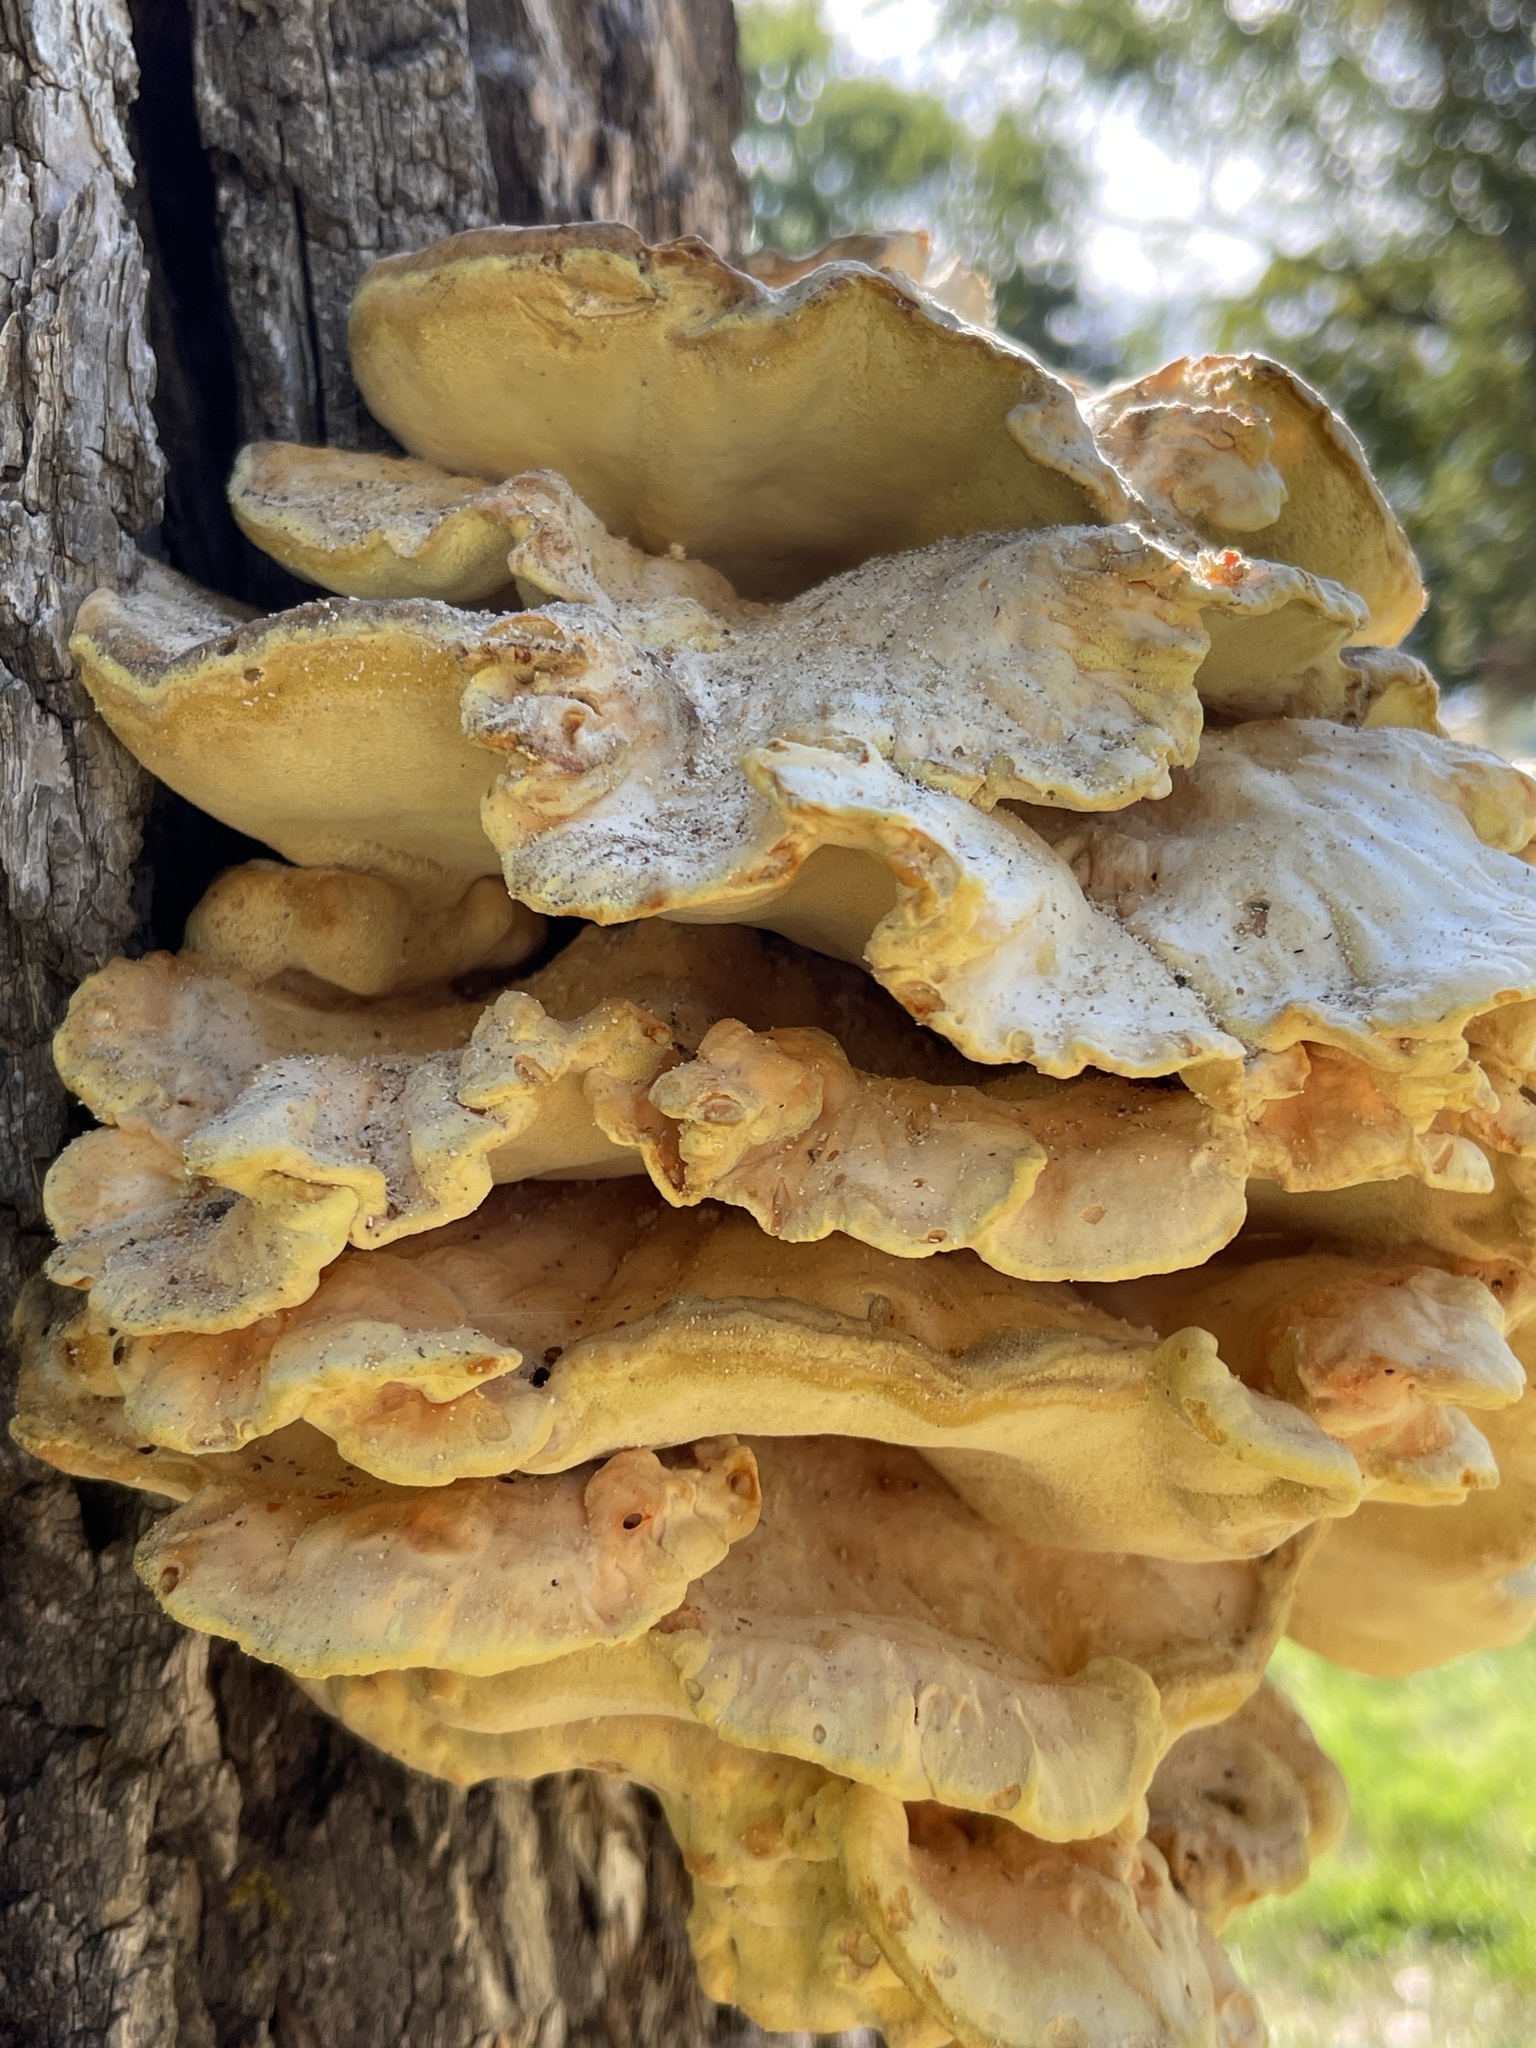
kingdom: Fungi
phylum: Basidiomycota
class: Agaricomycetes
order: Polyporales
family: Laetiporaceae
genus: Laetiporus
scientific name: Laetiporus sulphureus
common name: Chicken of the woods
